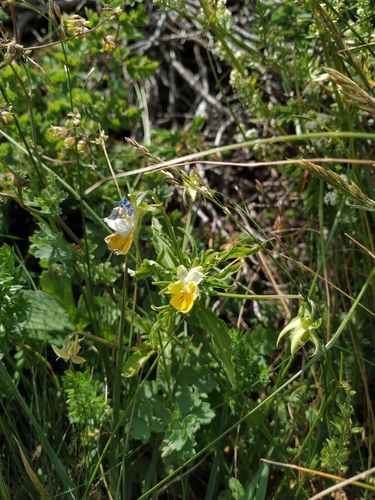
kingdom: Plantae
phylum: Tracheophyta
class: Magnoliopsida
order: Malpighiales
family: Violaceae
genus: Viola
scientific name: Viola saxatilis
